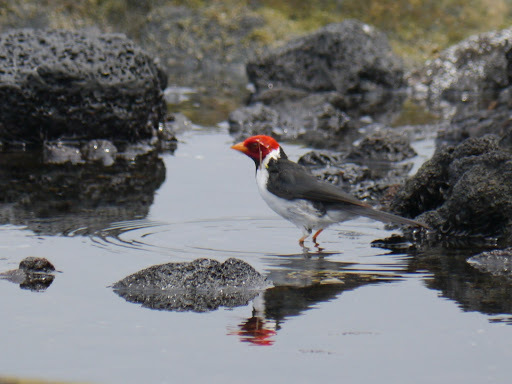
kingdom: Animalia
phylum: Chordata
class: Aves
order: Passeriformes
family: Thraupidae
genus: Paroaria
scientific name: Paroaria capitata
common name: Yellow-billed cardinal
